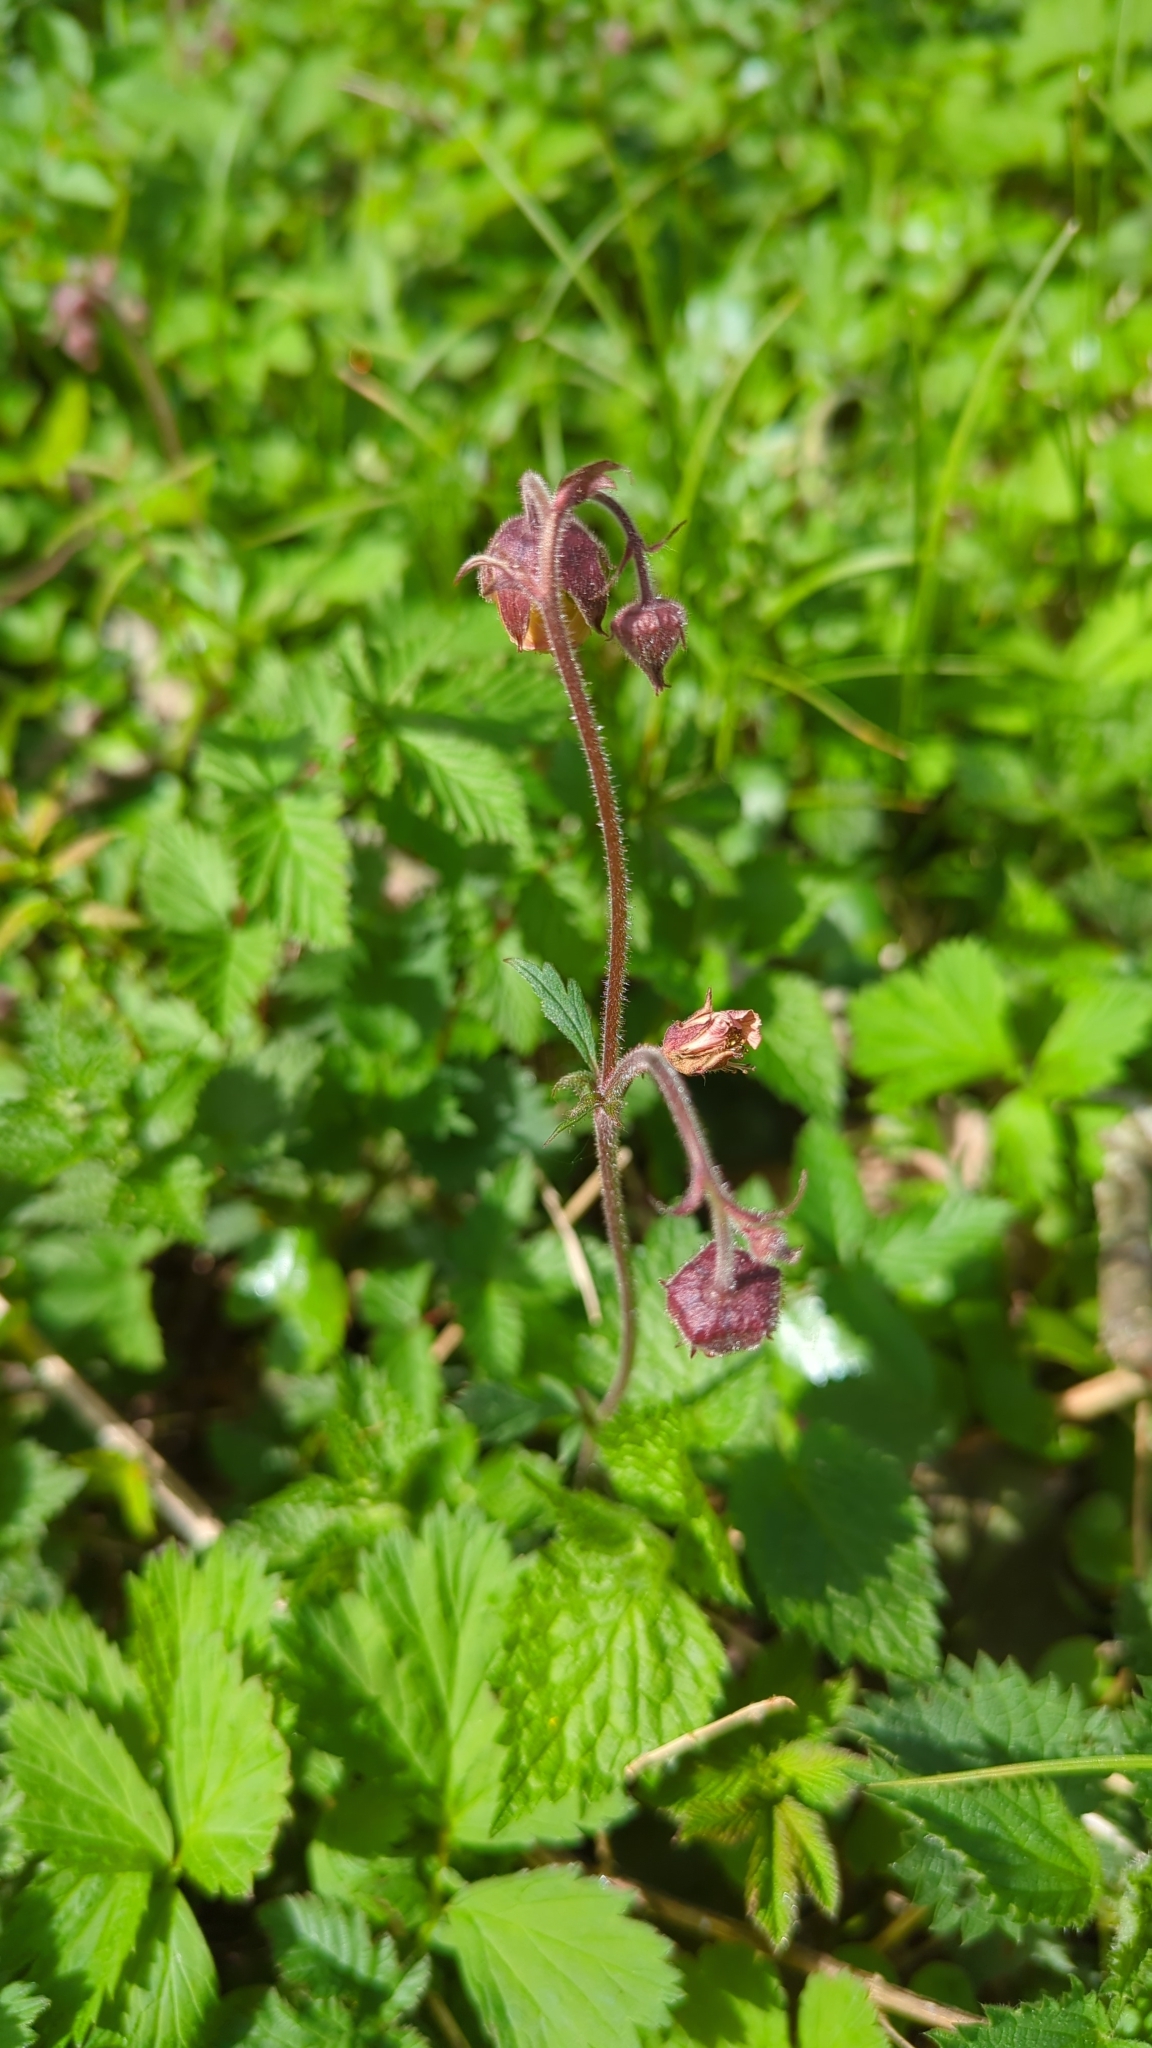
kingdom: Plantae
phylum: Tracheophyta
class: Magnoliopsida
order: Rosales
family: Rosaceae
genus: Geum
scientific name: Geum rivale
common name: Water avens
